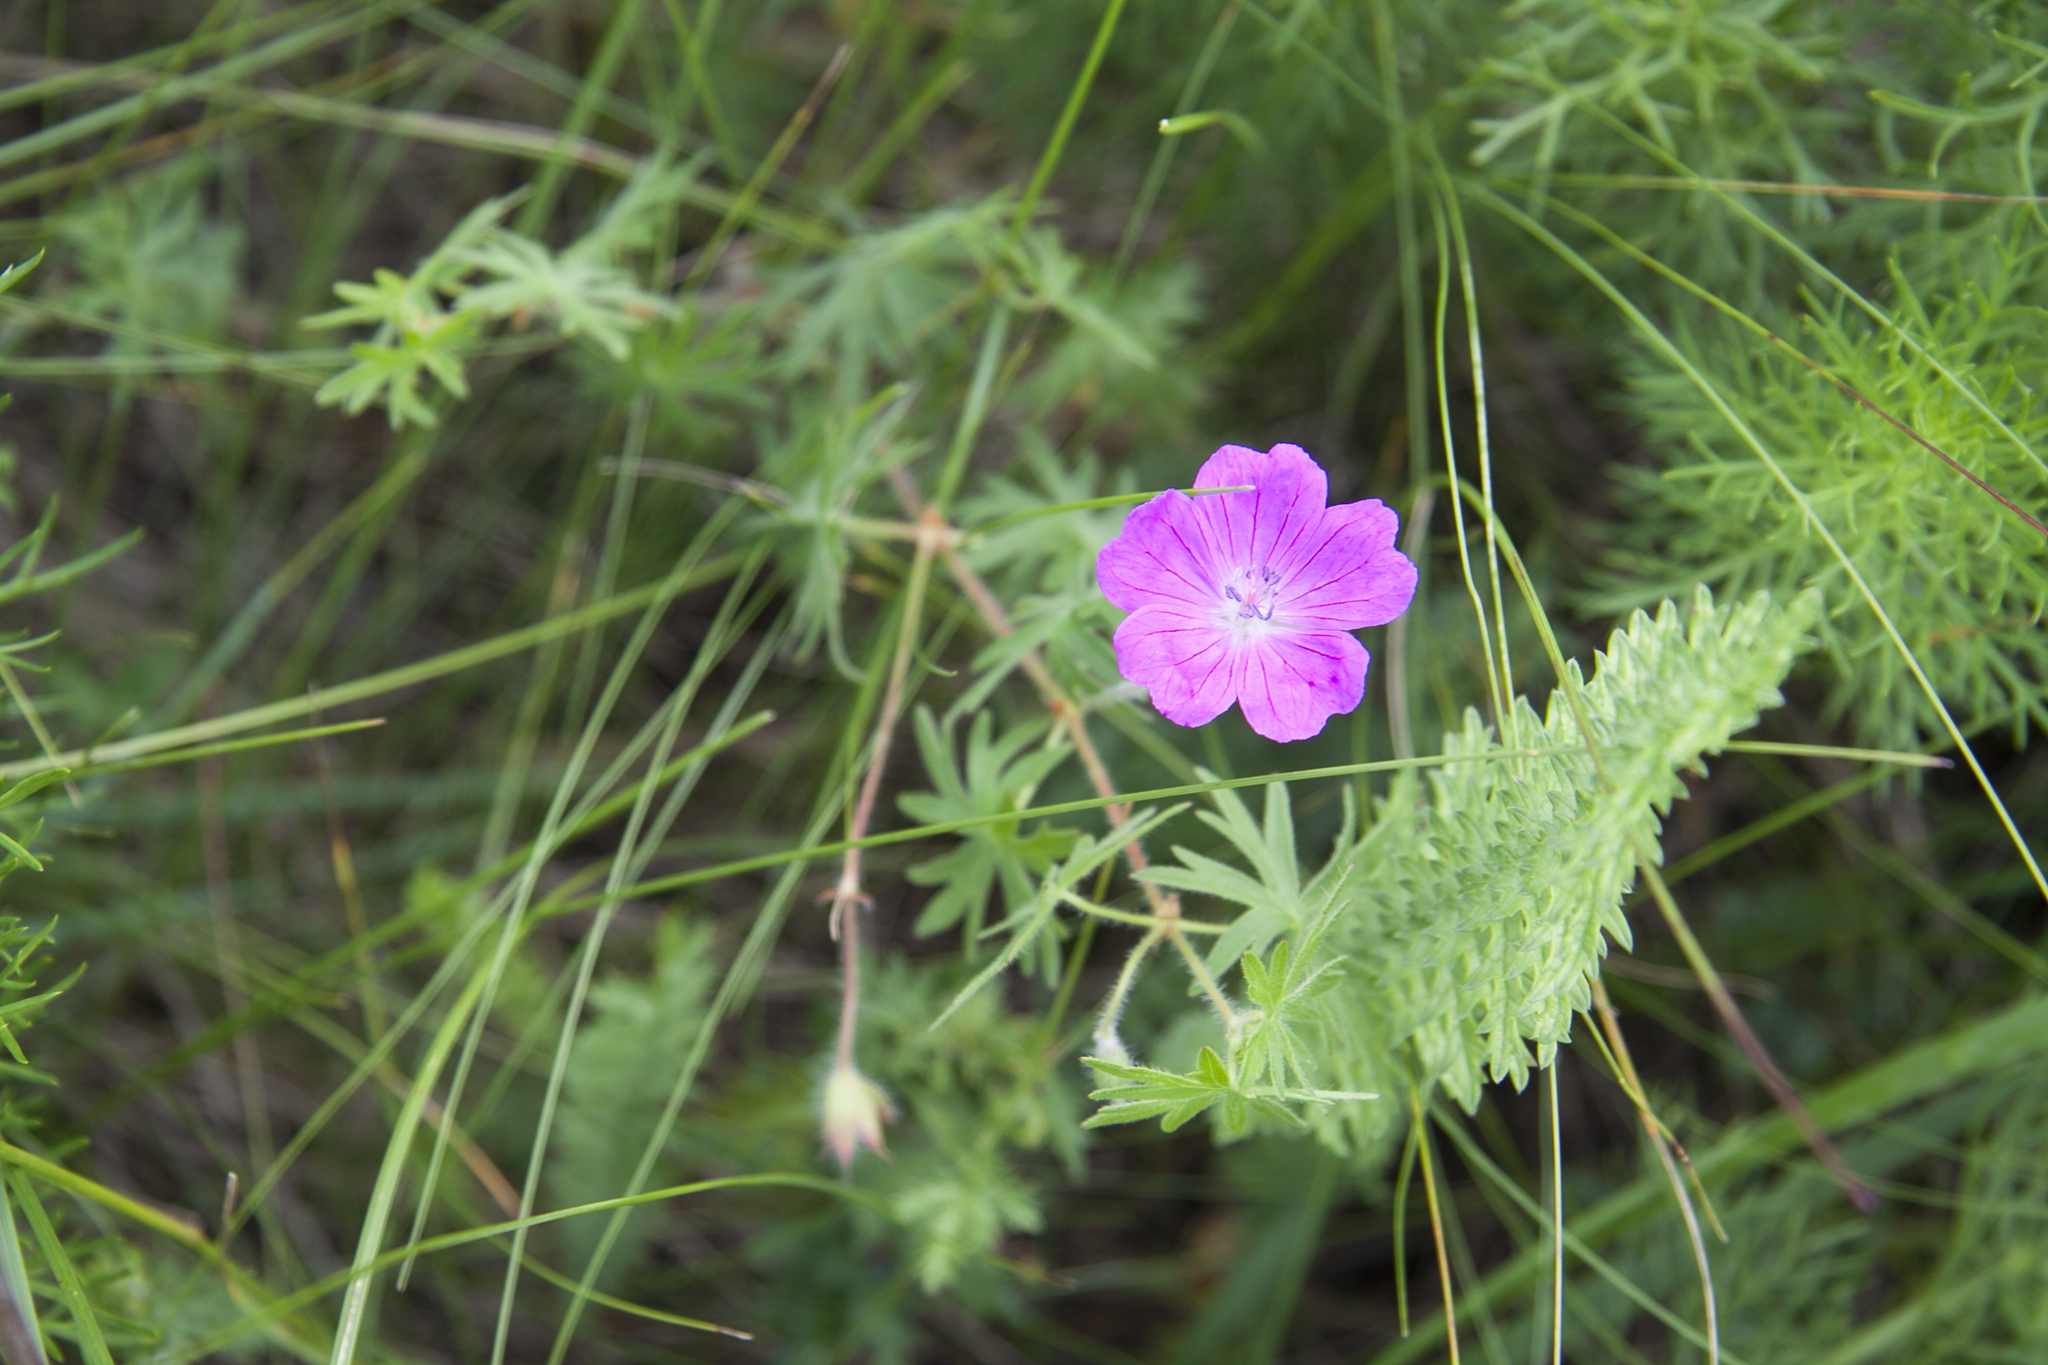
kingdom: Plantae
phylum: Tracheophyta
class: Magnoliopsida
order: Geraniales
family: Geraniaceae
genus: Geranium
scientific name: Geranium sanguineum
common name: Bloody crane's-bill
